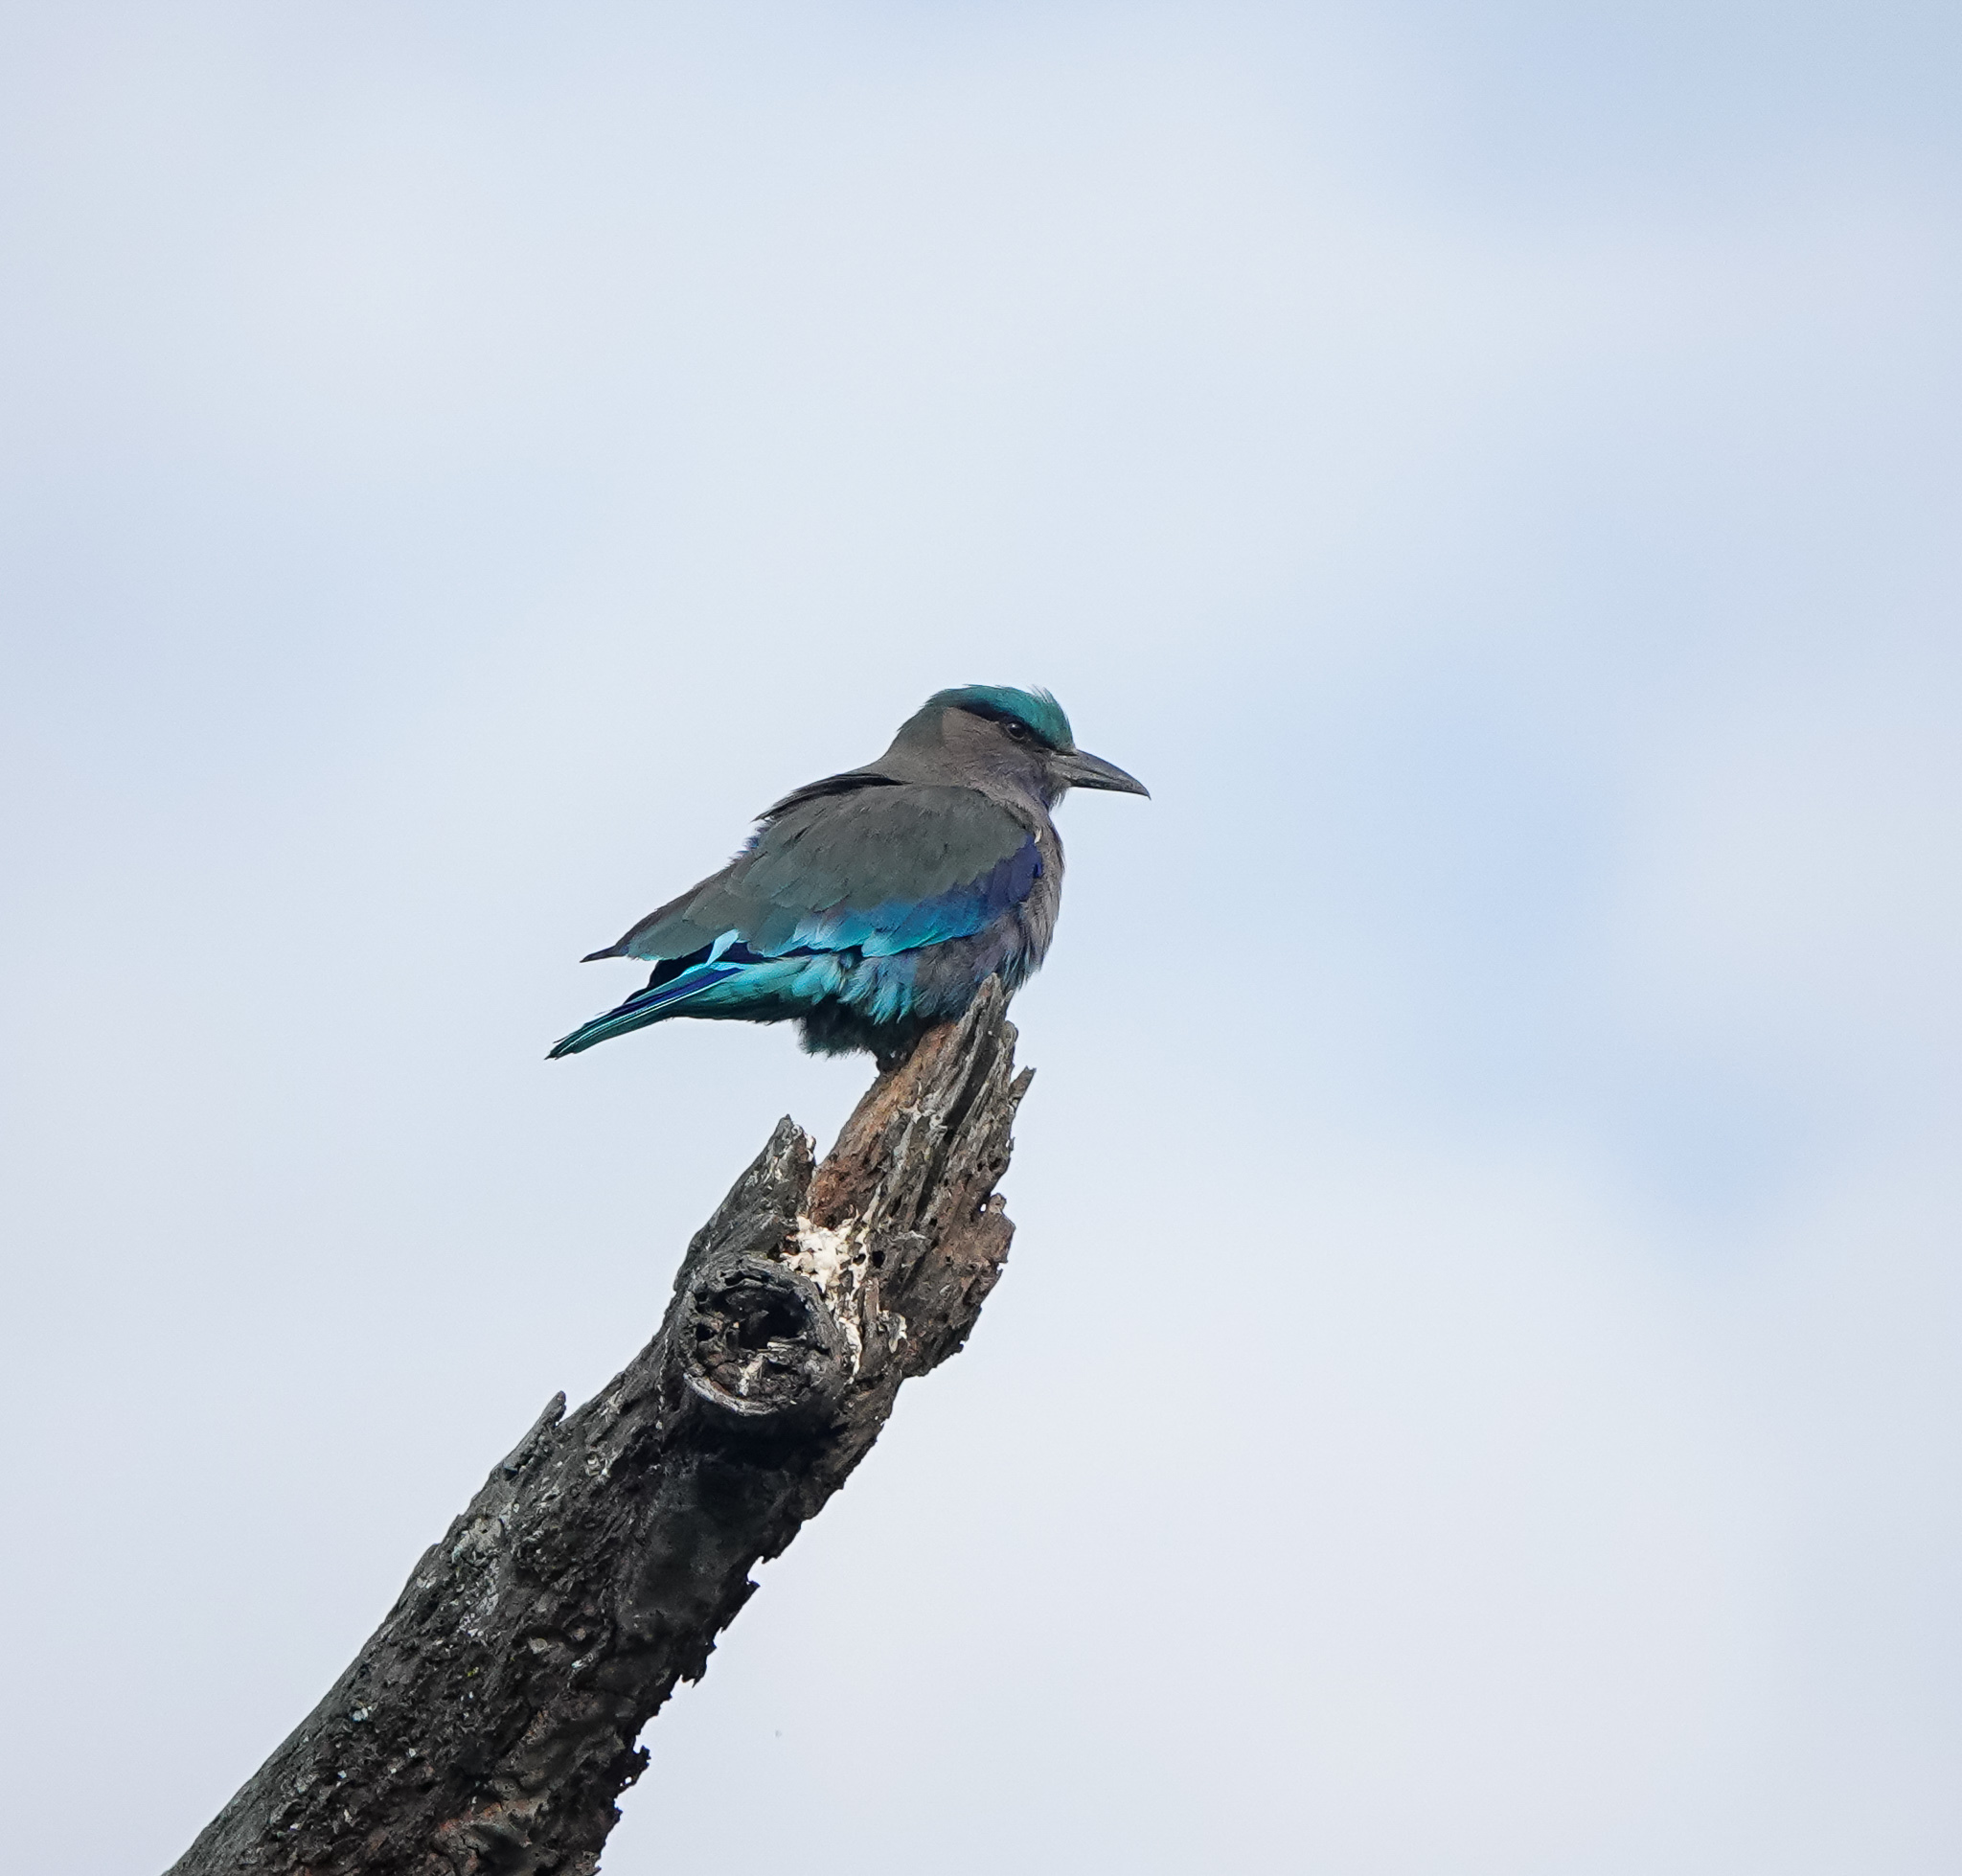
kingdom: Animalia
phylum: Chordata
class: Aves
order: Coraciiformes
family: Coraciidae
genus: Coracias
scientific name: Coracias affinis
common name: Indochinese roller
